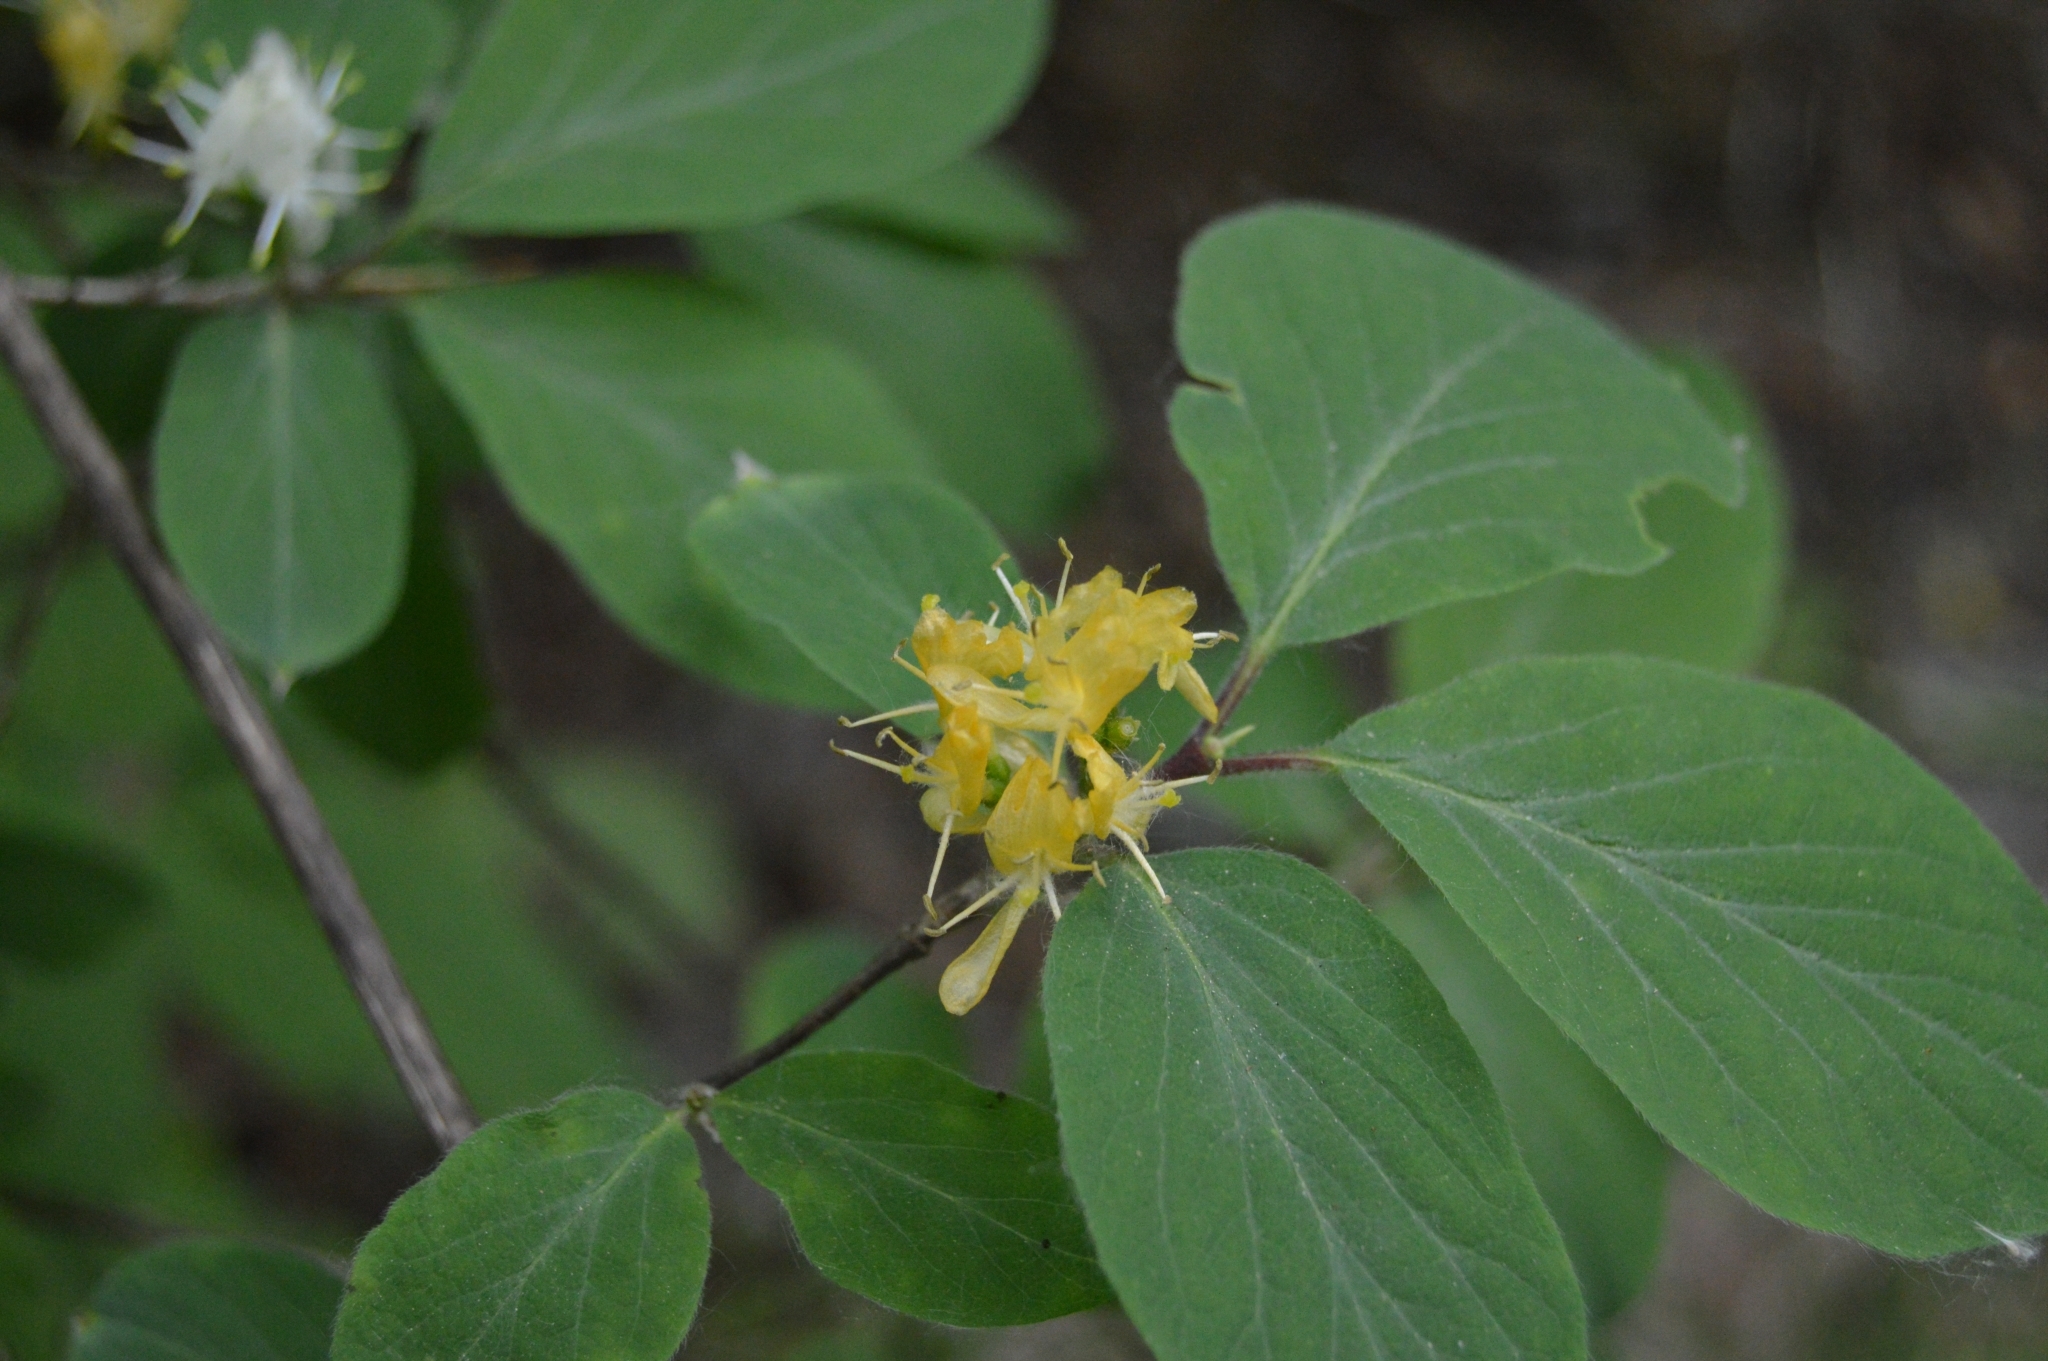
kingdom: Plantae
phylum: Tracheophyta
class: Magnoliopsida
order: Dipsacales
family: Caprifoliaceae
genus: Lonicera
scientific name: Lonicera xylosteum
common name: Fly honeysuckle
